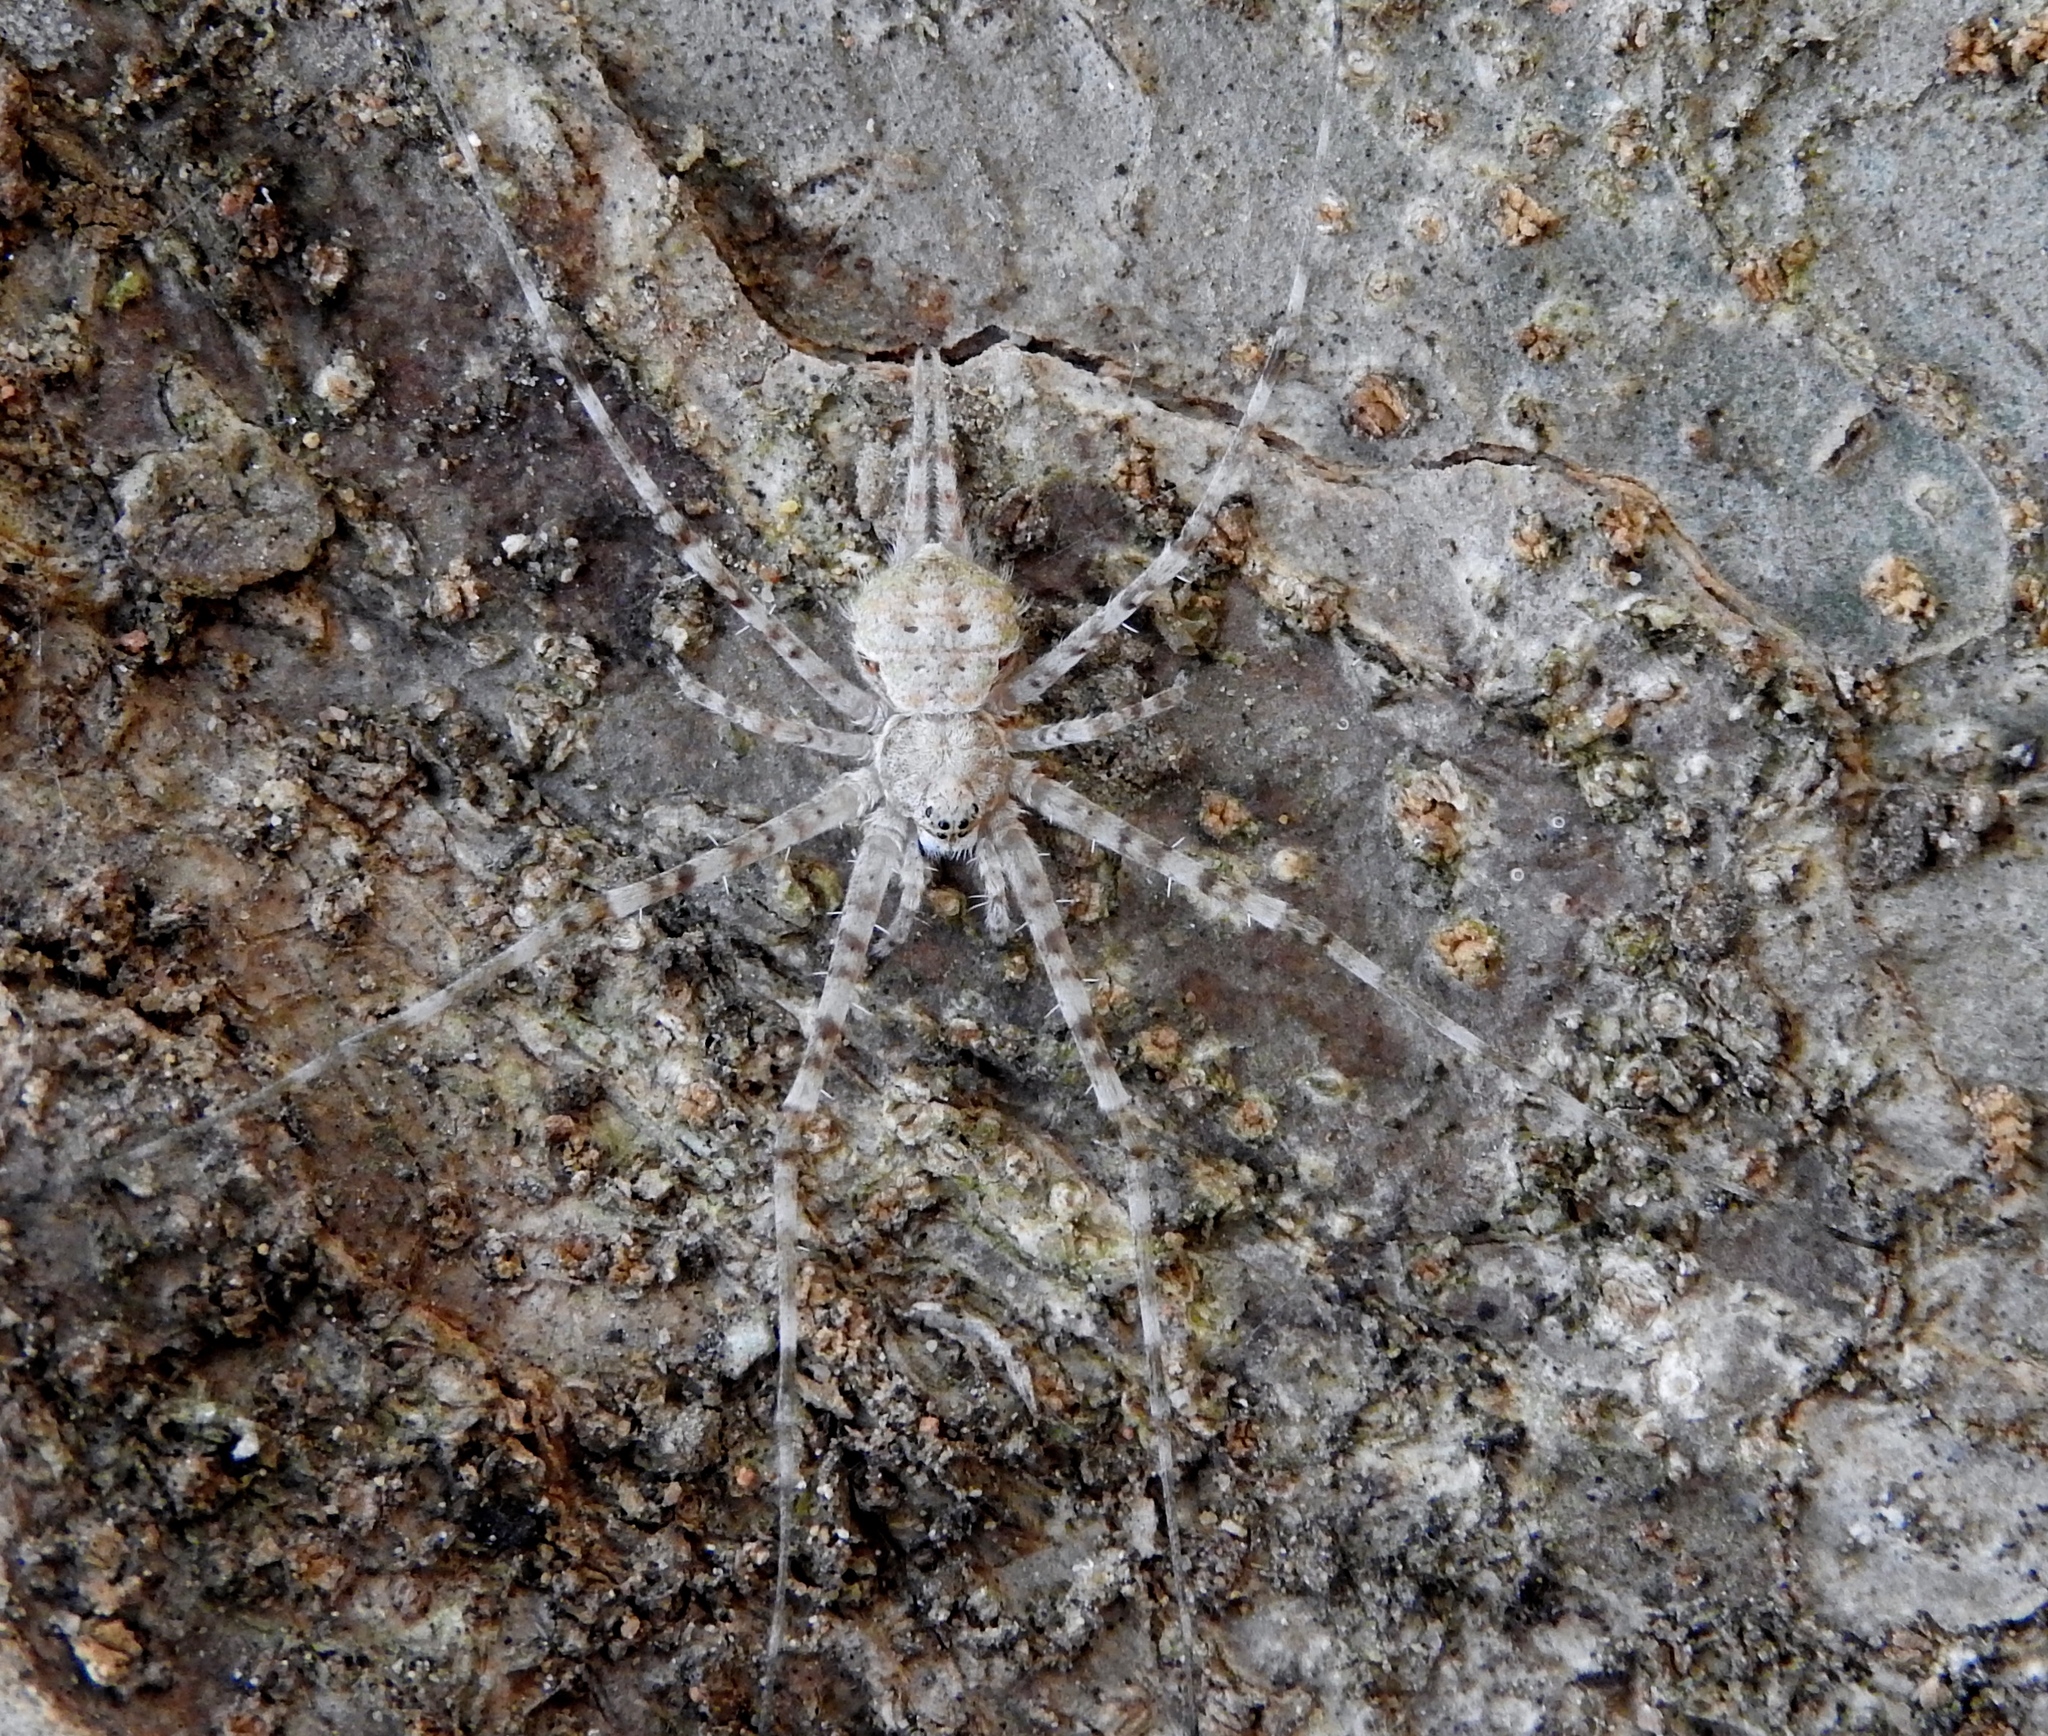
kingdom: Animalia
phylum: Arthropoda
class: Arachnida
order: Araneae
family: Hersiliidae
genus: Neotama
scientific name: Neotama mexicana
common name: Tree trunk spiders
